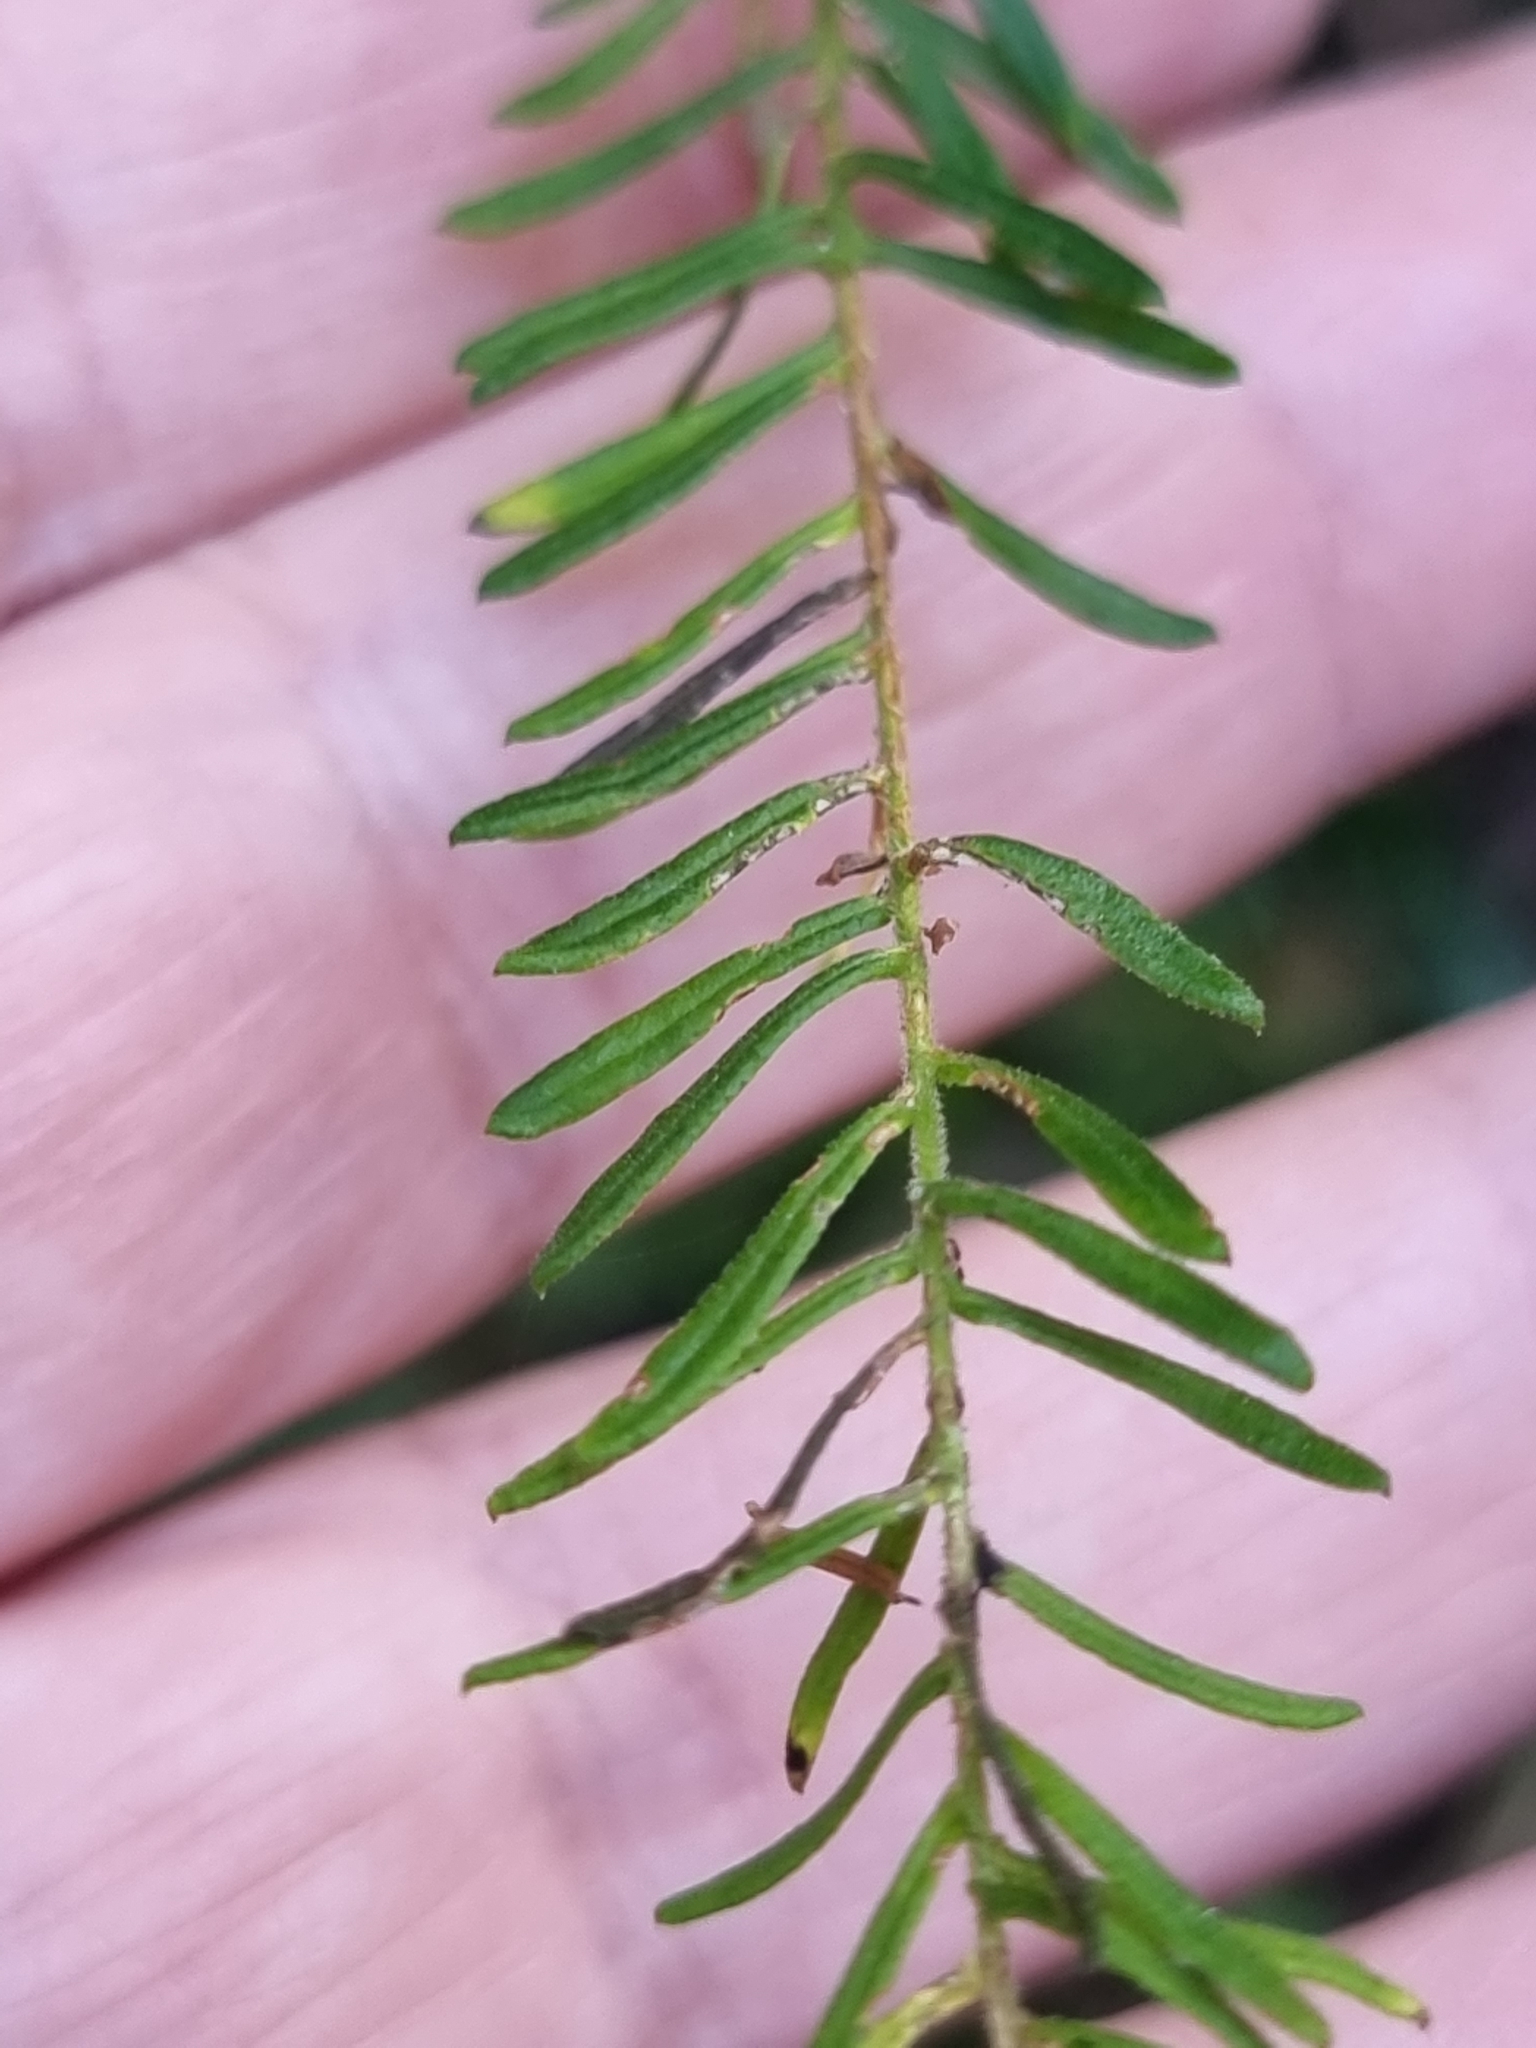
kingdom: Plantae
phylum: Tracheophyta
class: Magnoliopsida
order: Asterales
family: Asteraceae
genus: Ozothamnus
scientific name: Ozothamnus diosmifolius
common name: White-dogwood
